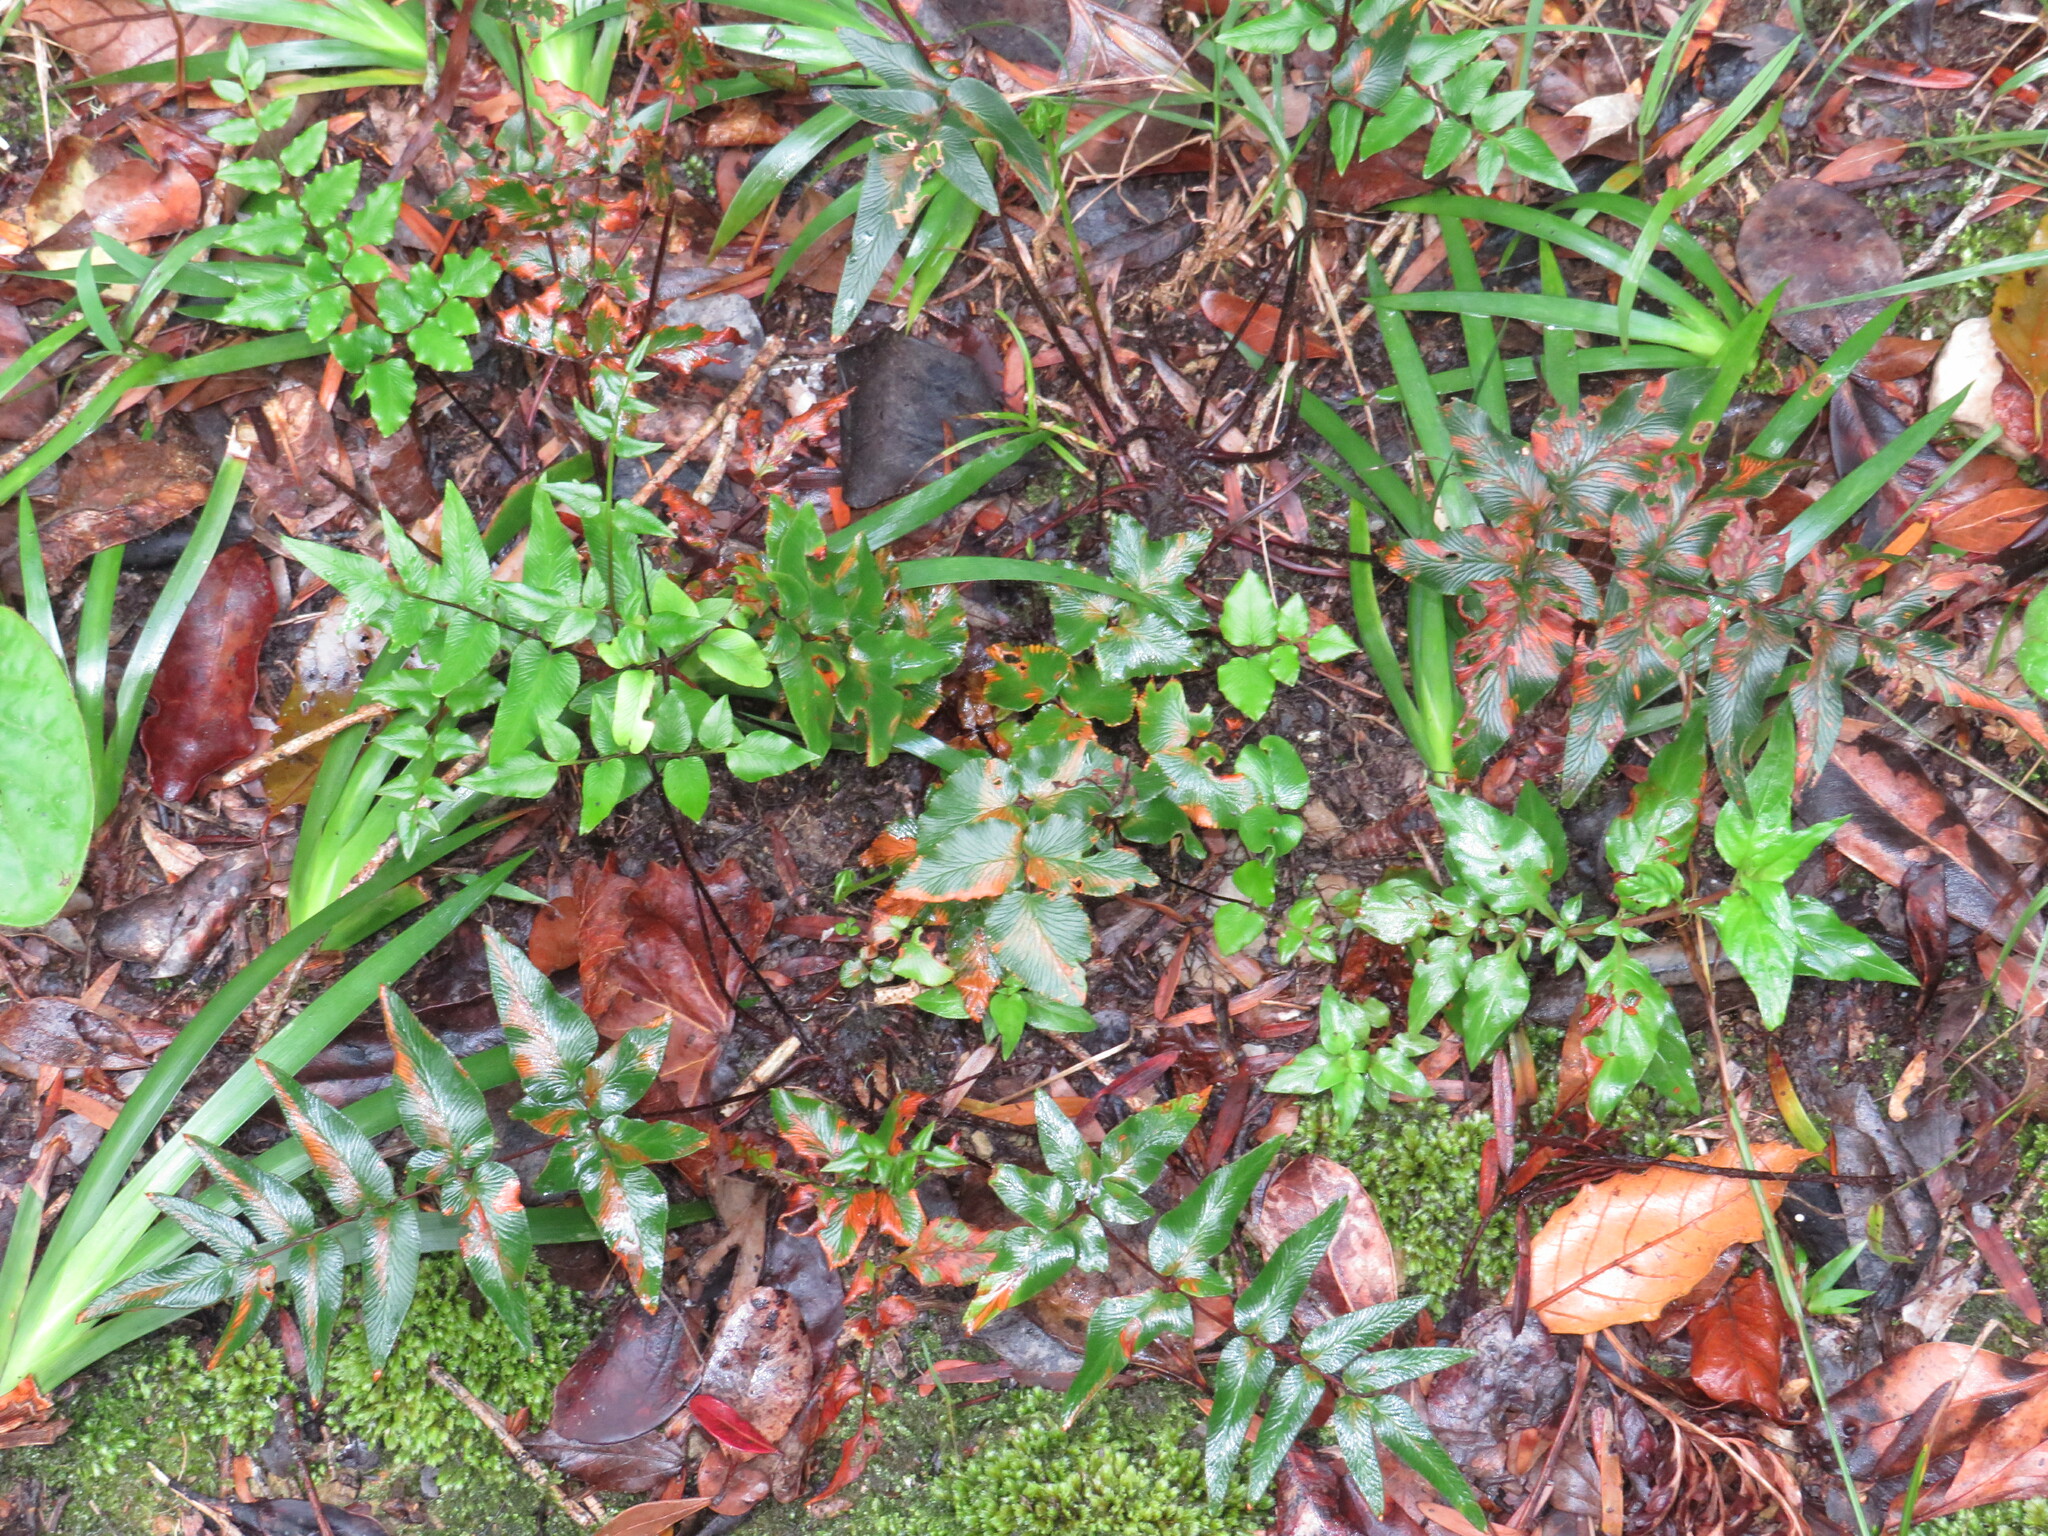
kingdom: Plantae
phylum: Tracheophyta
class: Polypodiopsida
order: Polypodiales
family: Pteridaceae
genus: Cheilanthes
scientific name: Cheilanthes viridis
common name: Green cliffbrake
